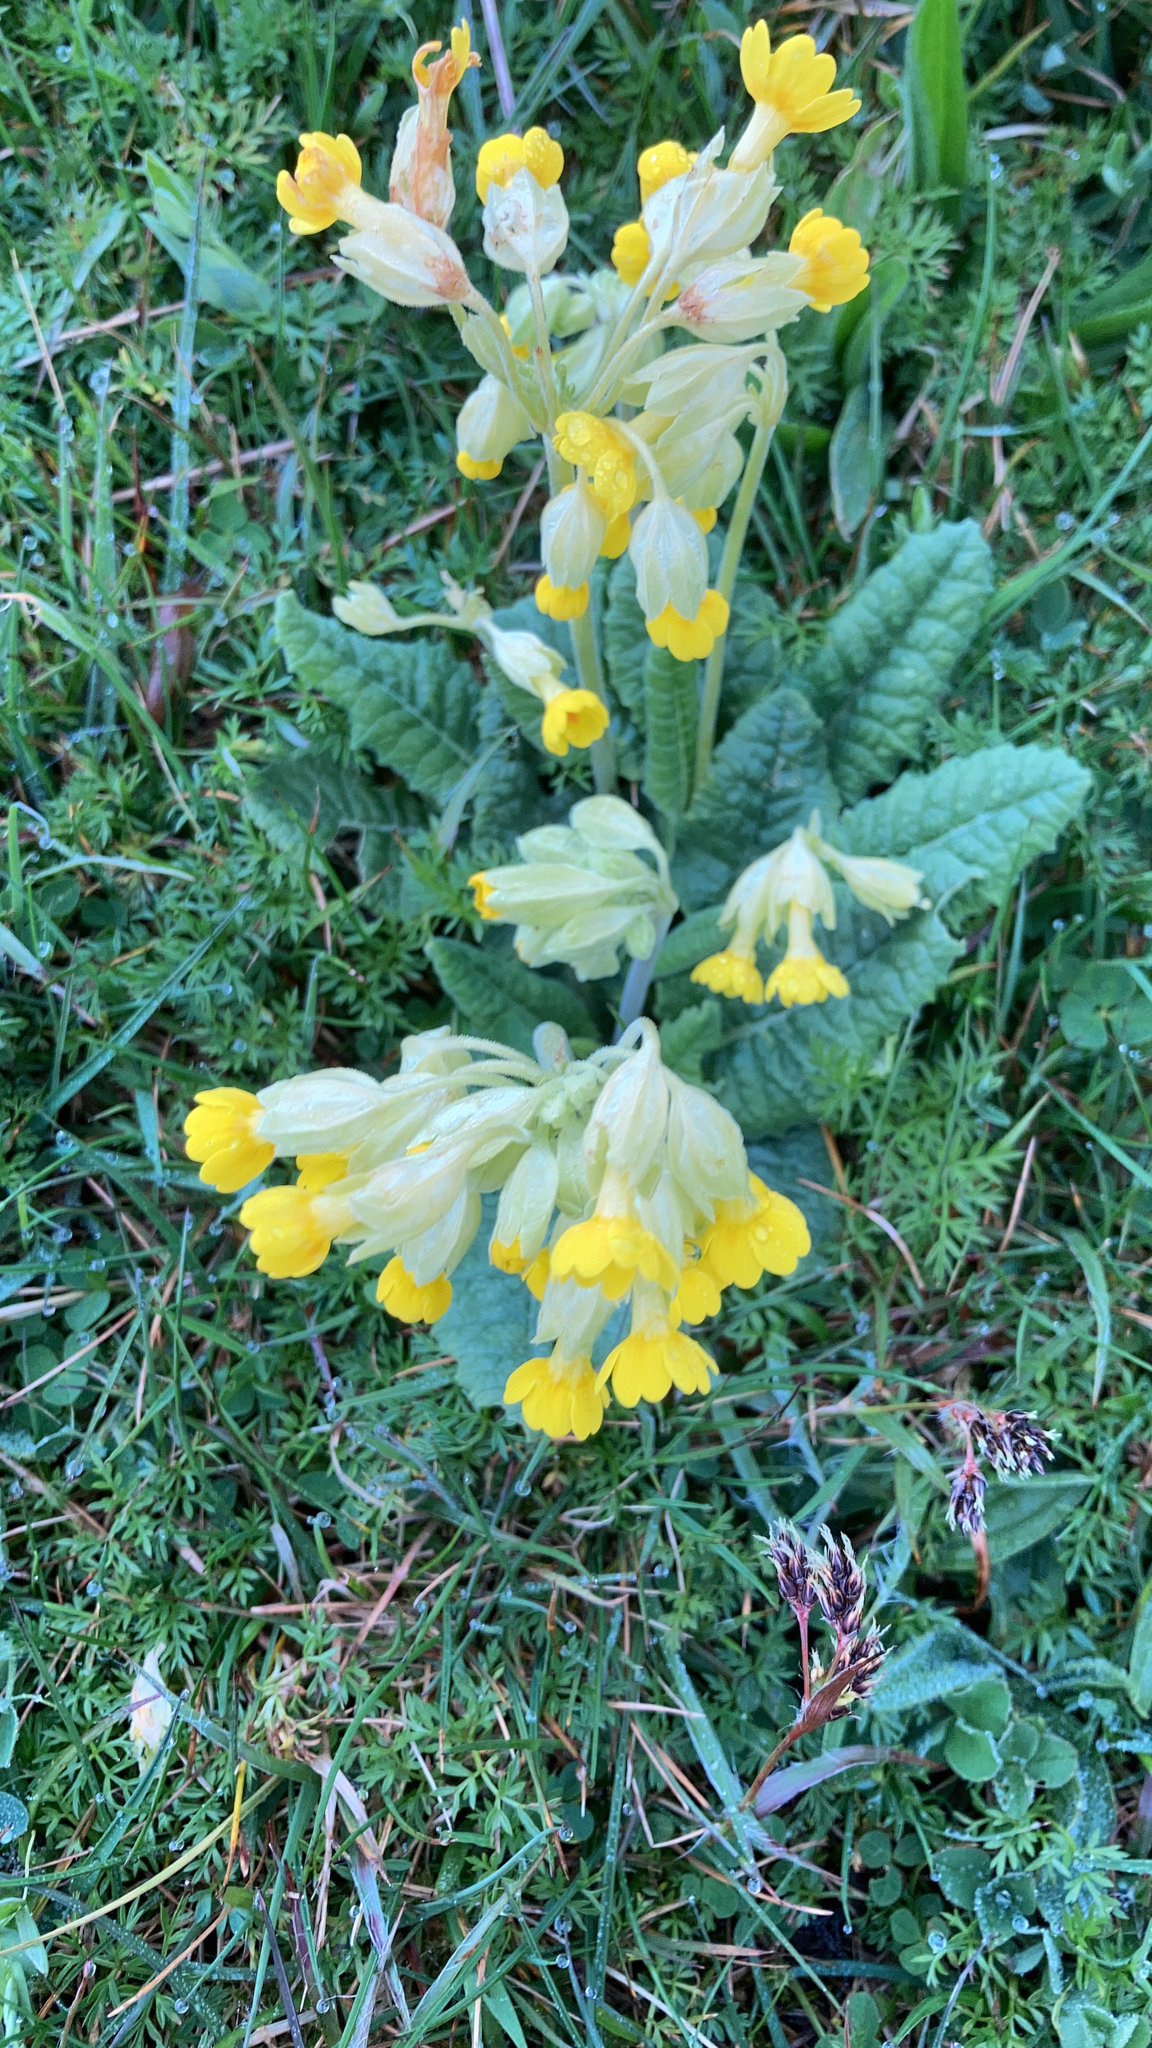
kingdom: Plantae
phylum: Tracheophyta
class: Magnoliopsida
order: Ericales
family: Primulaceae
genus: Primula
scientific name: Primula veris
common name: Cowslip
